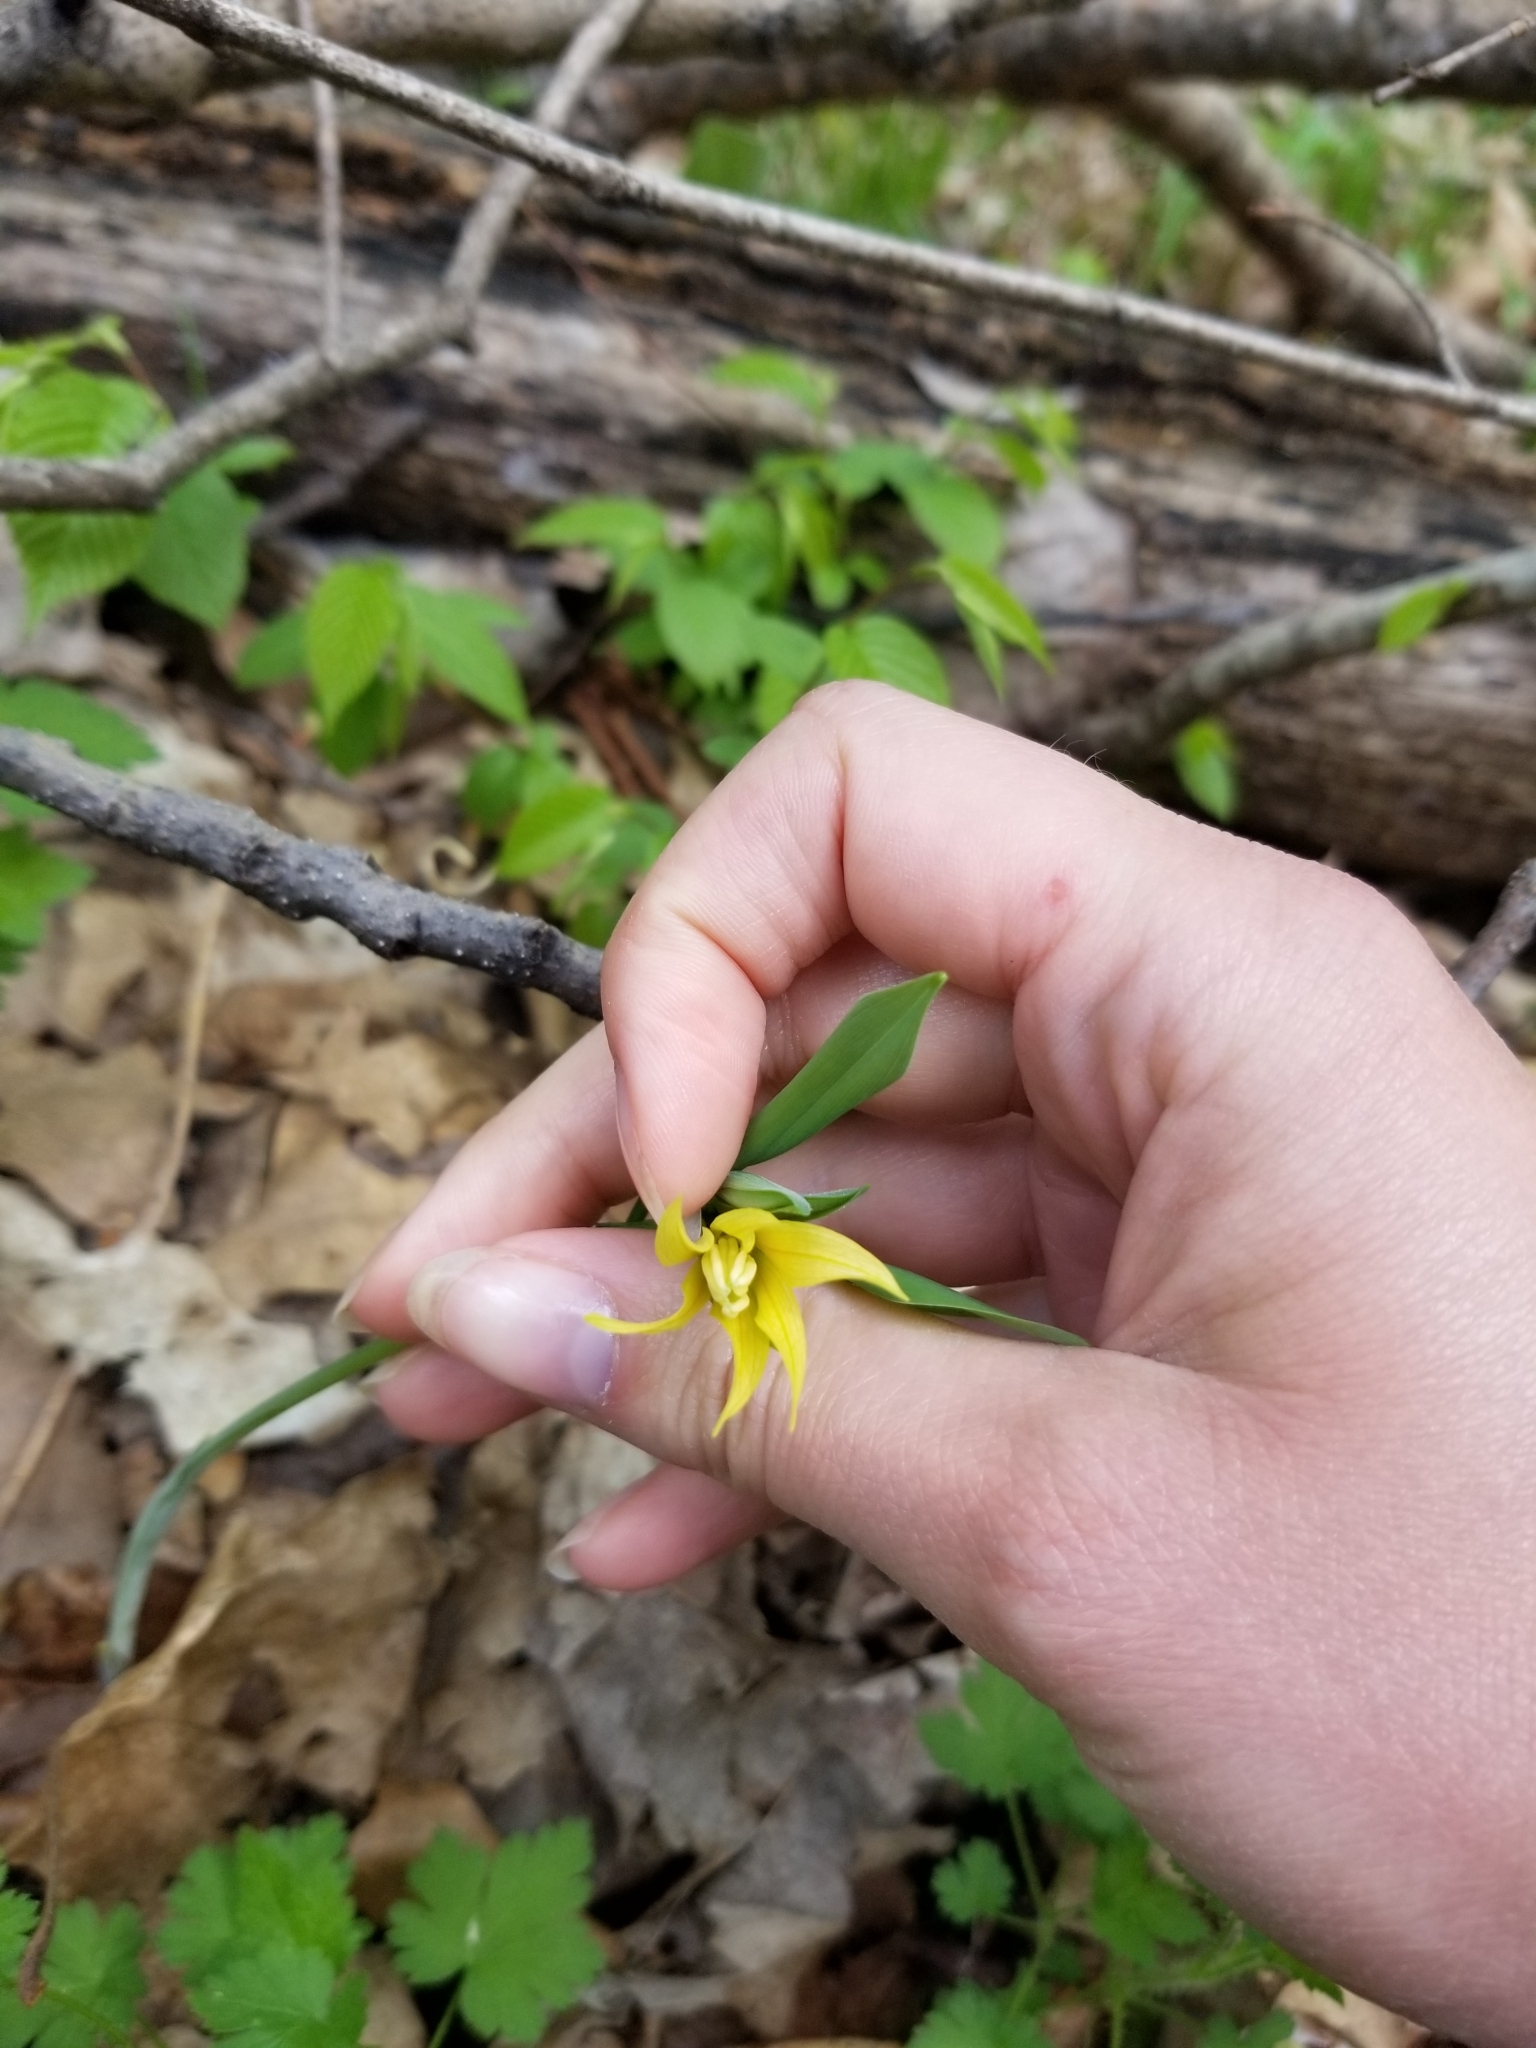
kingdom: Plantae
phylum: Tracheophyta
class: Liliopsida
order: Liliales
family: Colchicaceae
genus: Uvularia
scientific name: Uvularia grandiflora
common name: Bellwort
